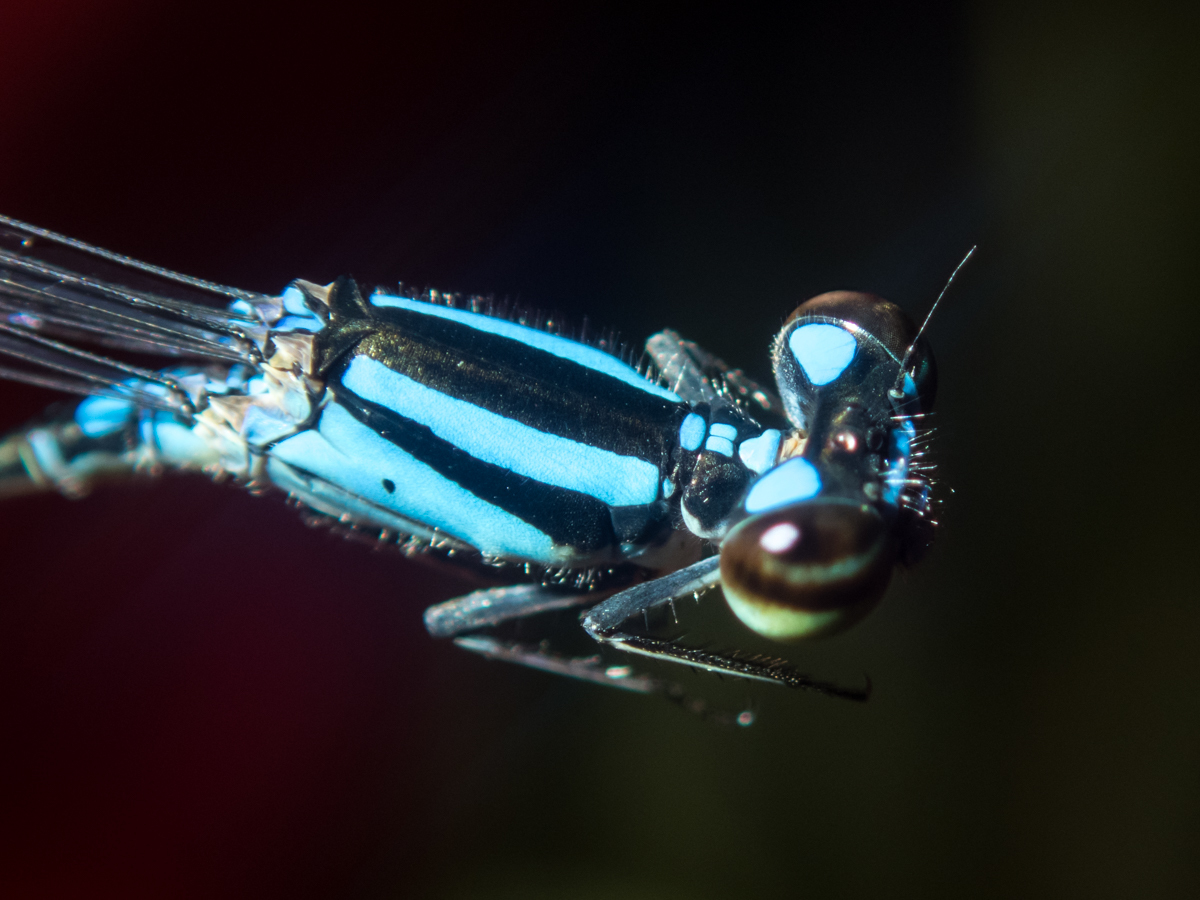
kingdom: Animalia
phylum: Arthropoda
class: Insecta
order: Odonata
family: Coenagrionidae
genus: Pseudagrion
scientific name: Pseudagrion microcephalum
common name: Blue riverdamsel
